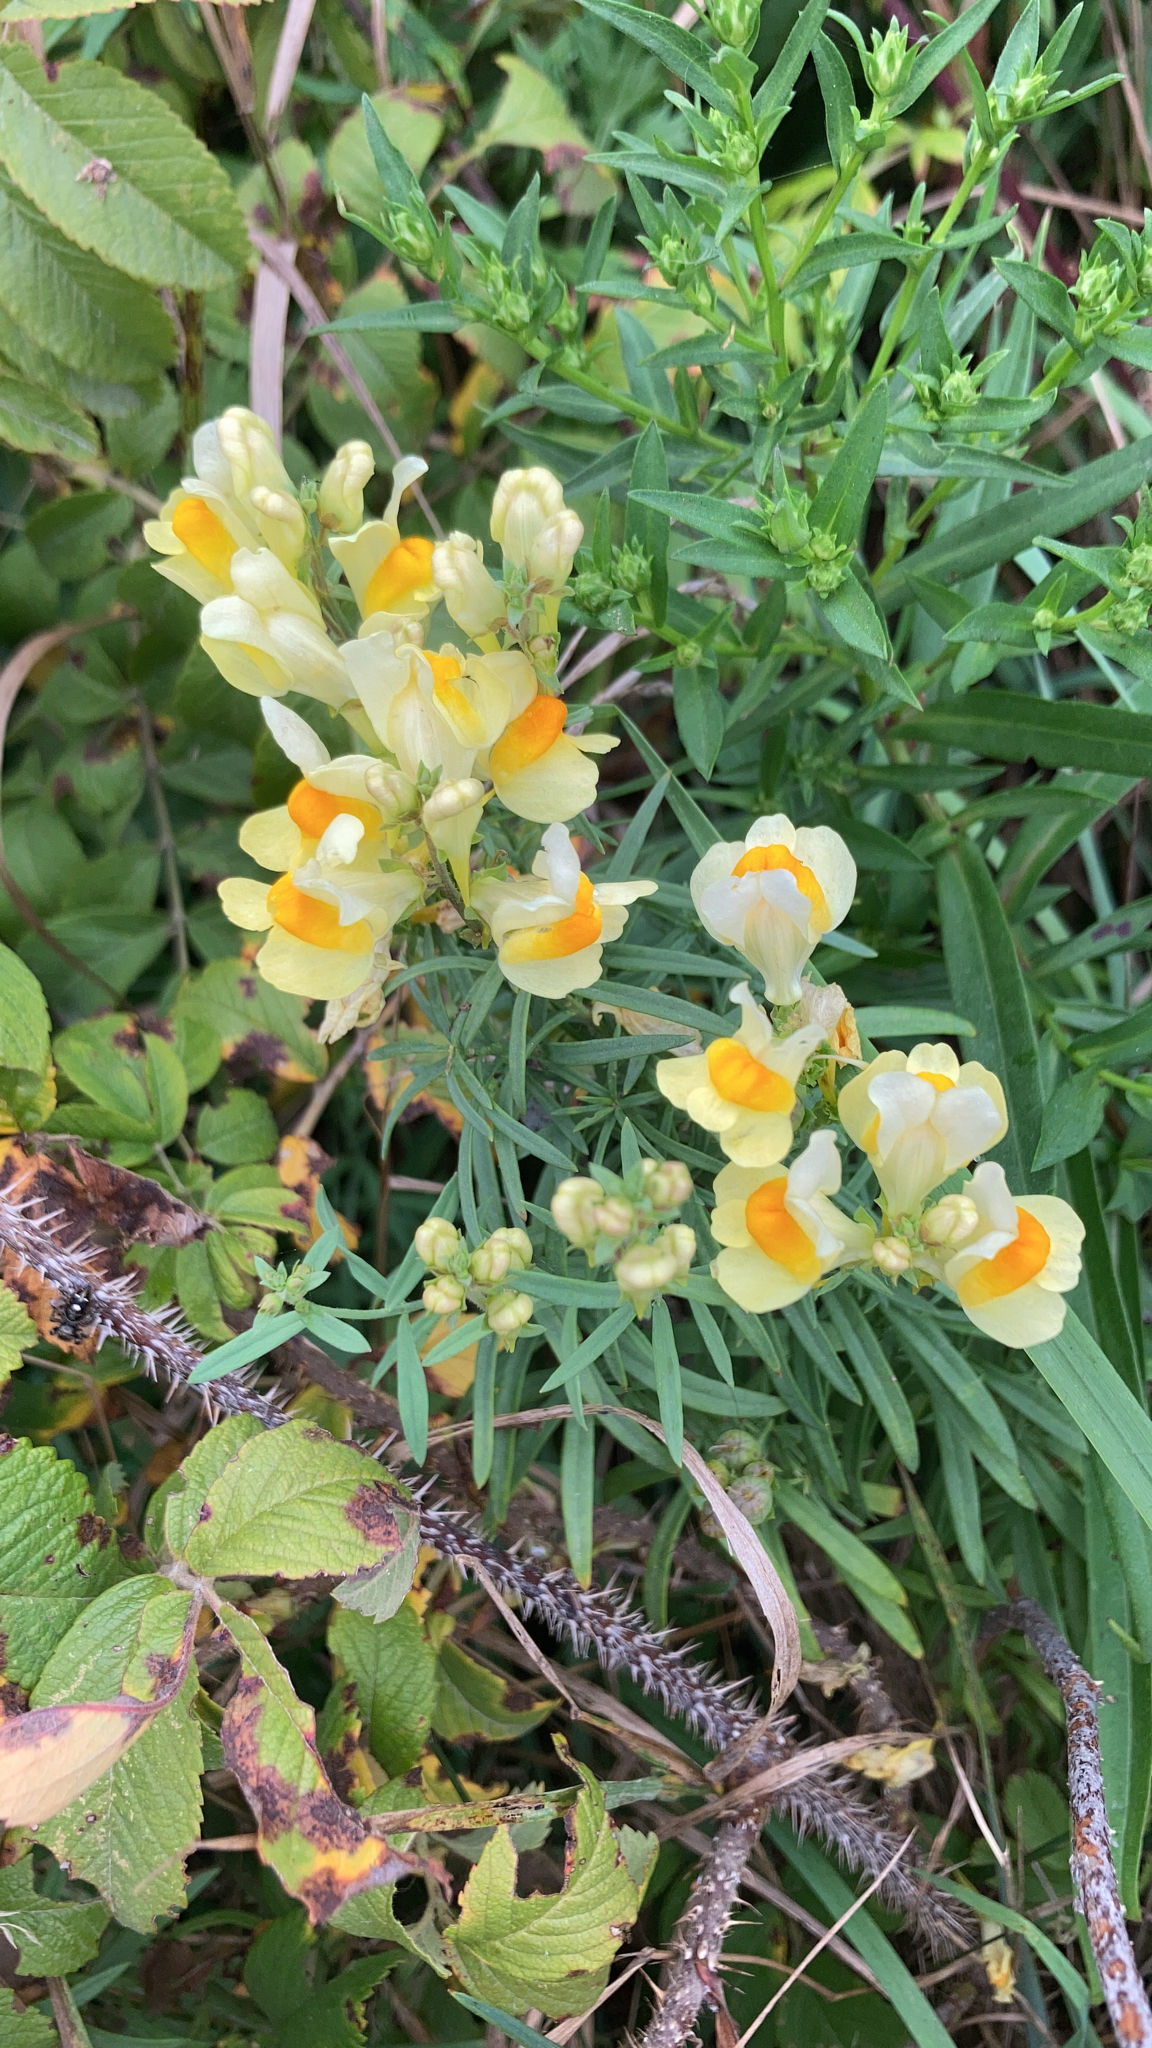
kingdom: Plantae
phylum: Tracheophyta
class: Magnoliopsida
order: Lamiales
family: Plantaginaceae
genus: Linaria
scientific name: Linaria vulgaris
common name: Butter and eggs
